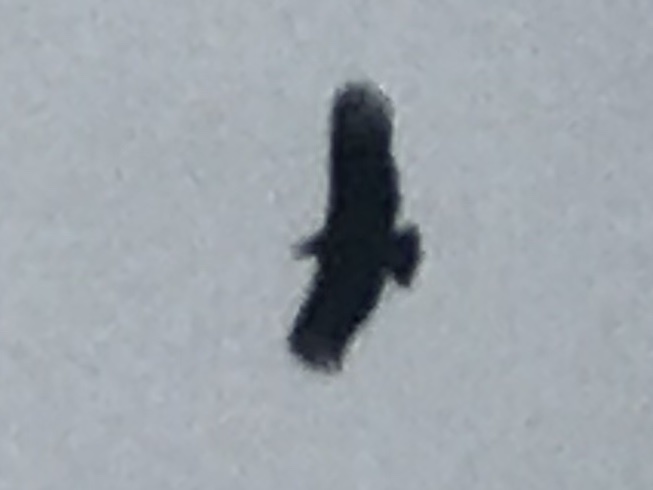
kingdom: Animalia
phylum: Chordata
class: Aves
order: Accipitriformes
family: Cathartidae
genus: Coragyps
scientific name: Coragyps atratus
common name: Black vulture
